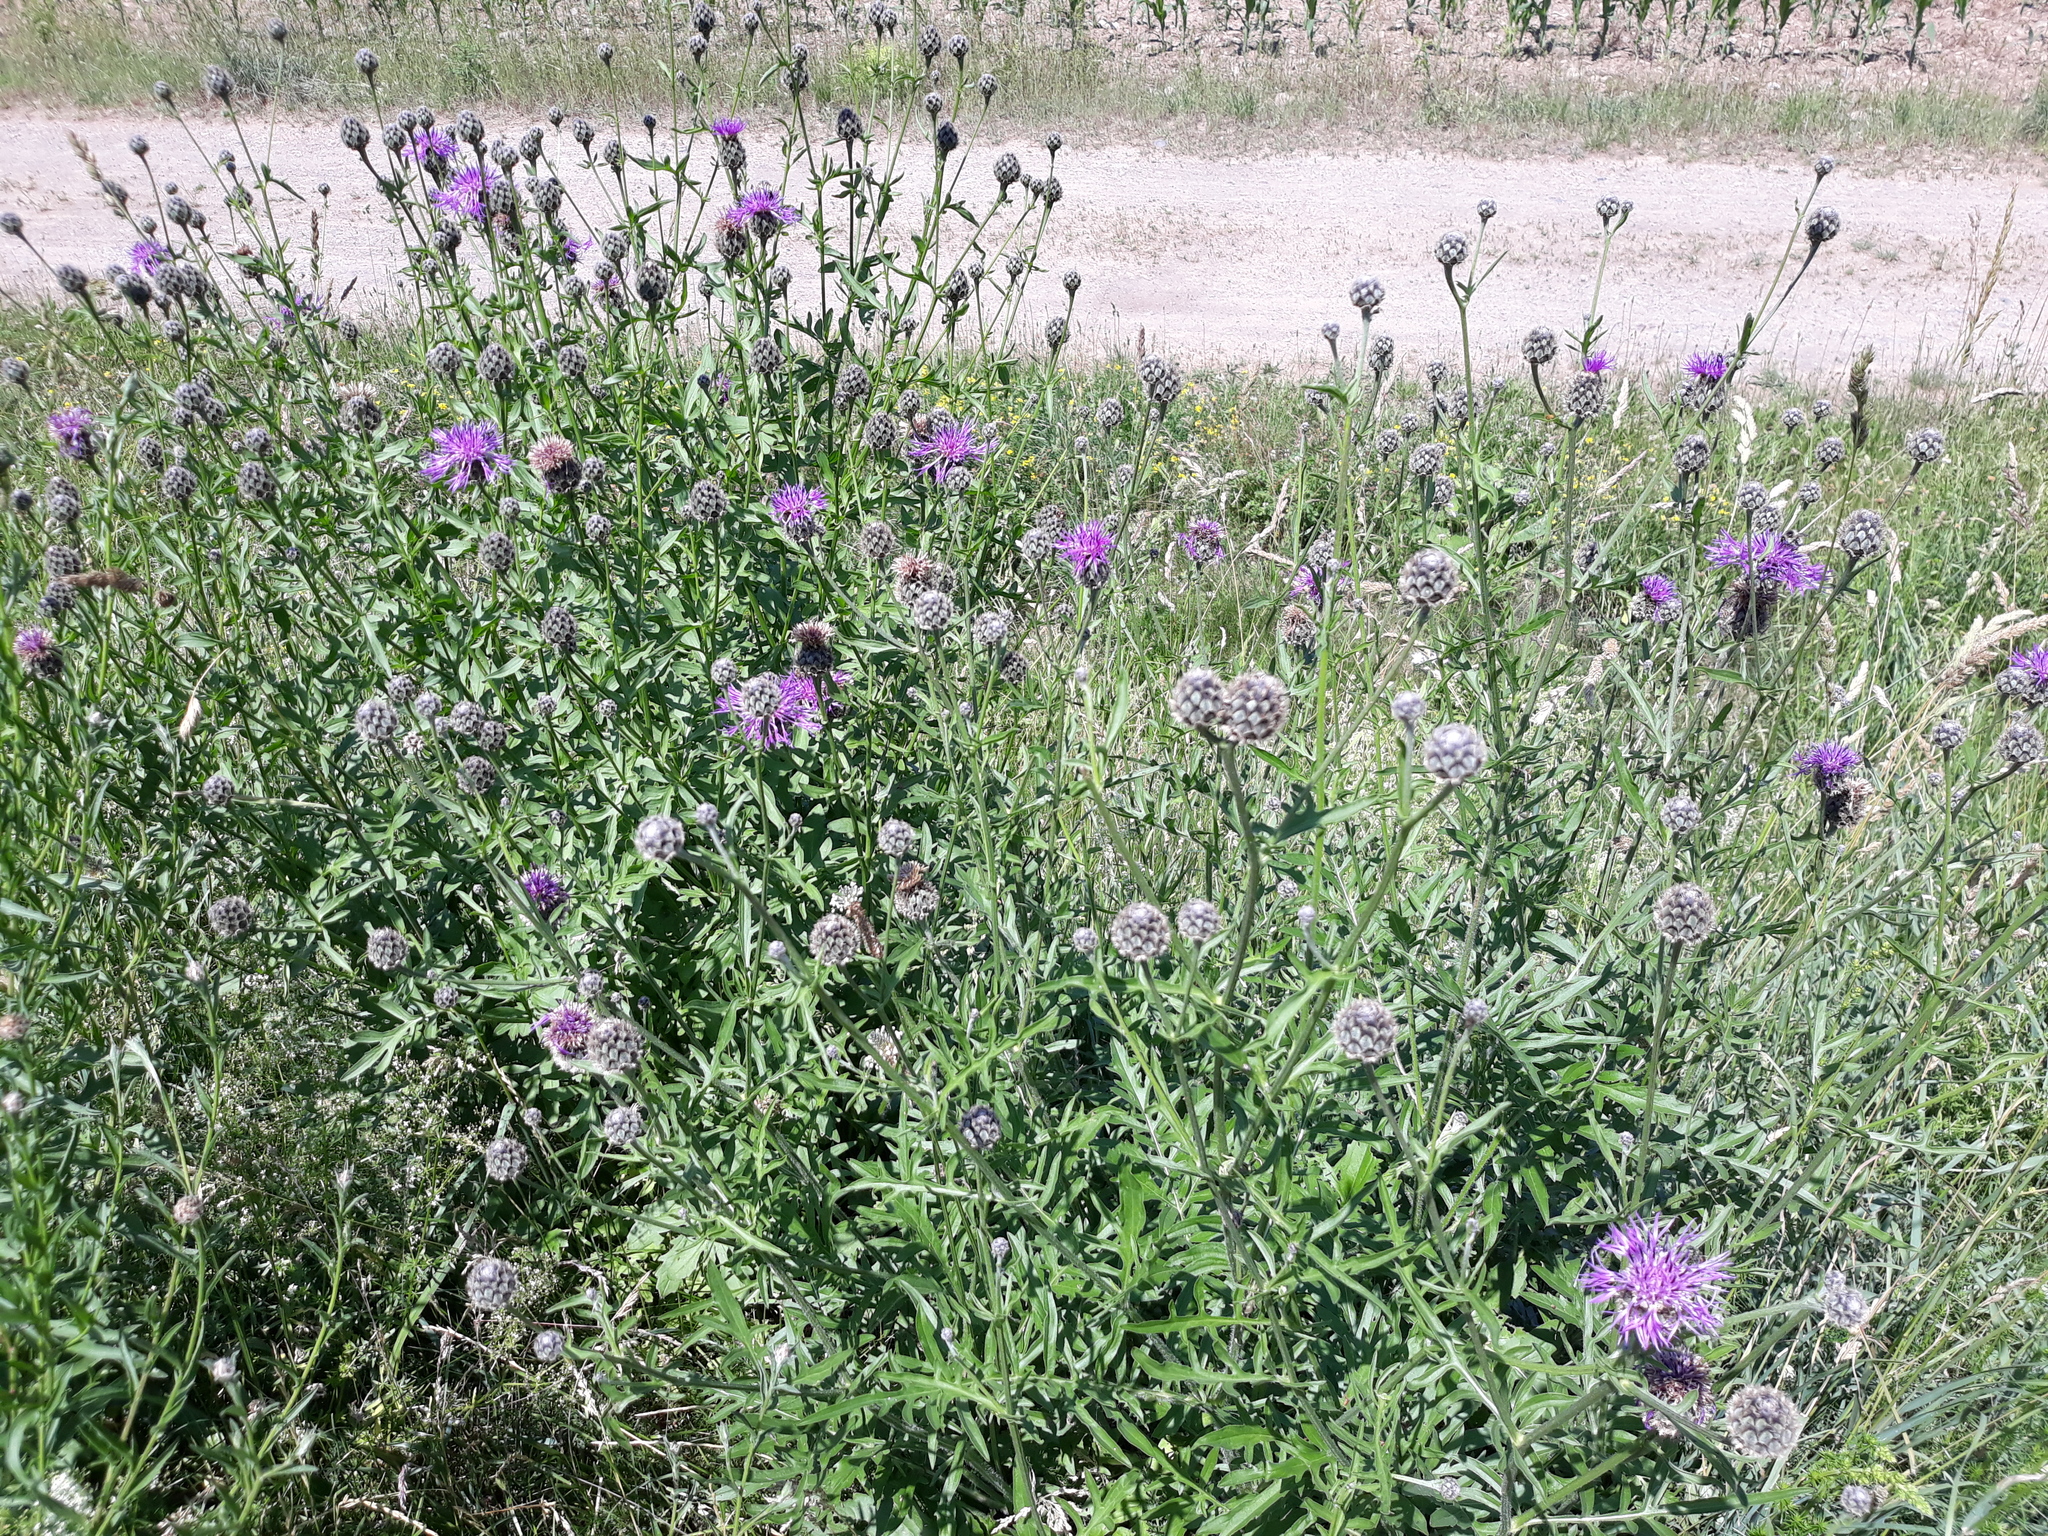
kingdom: Plantae
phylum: Tracheophyta
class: Magnoliopsida
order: Asterales
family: Asteraceae
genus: Centaurea
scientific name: Centaurea scabiosa
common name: Greater knapweed
